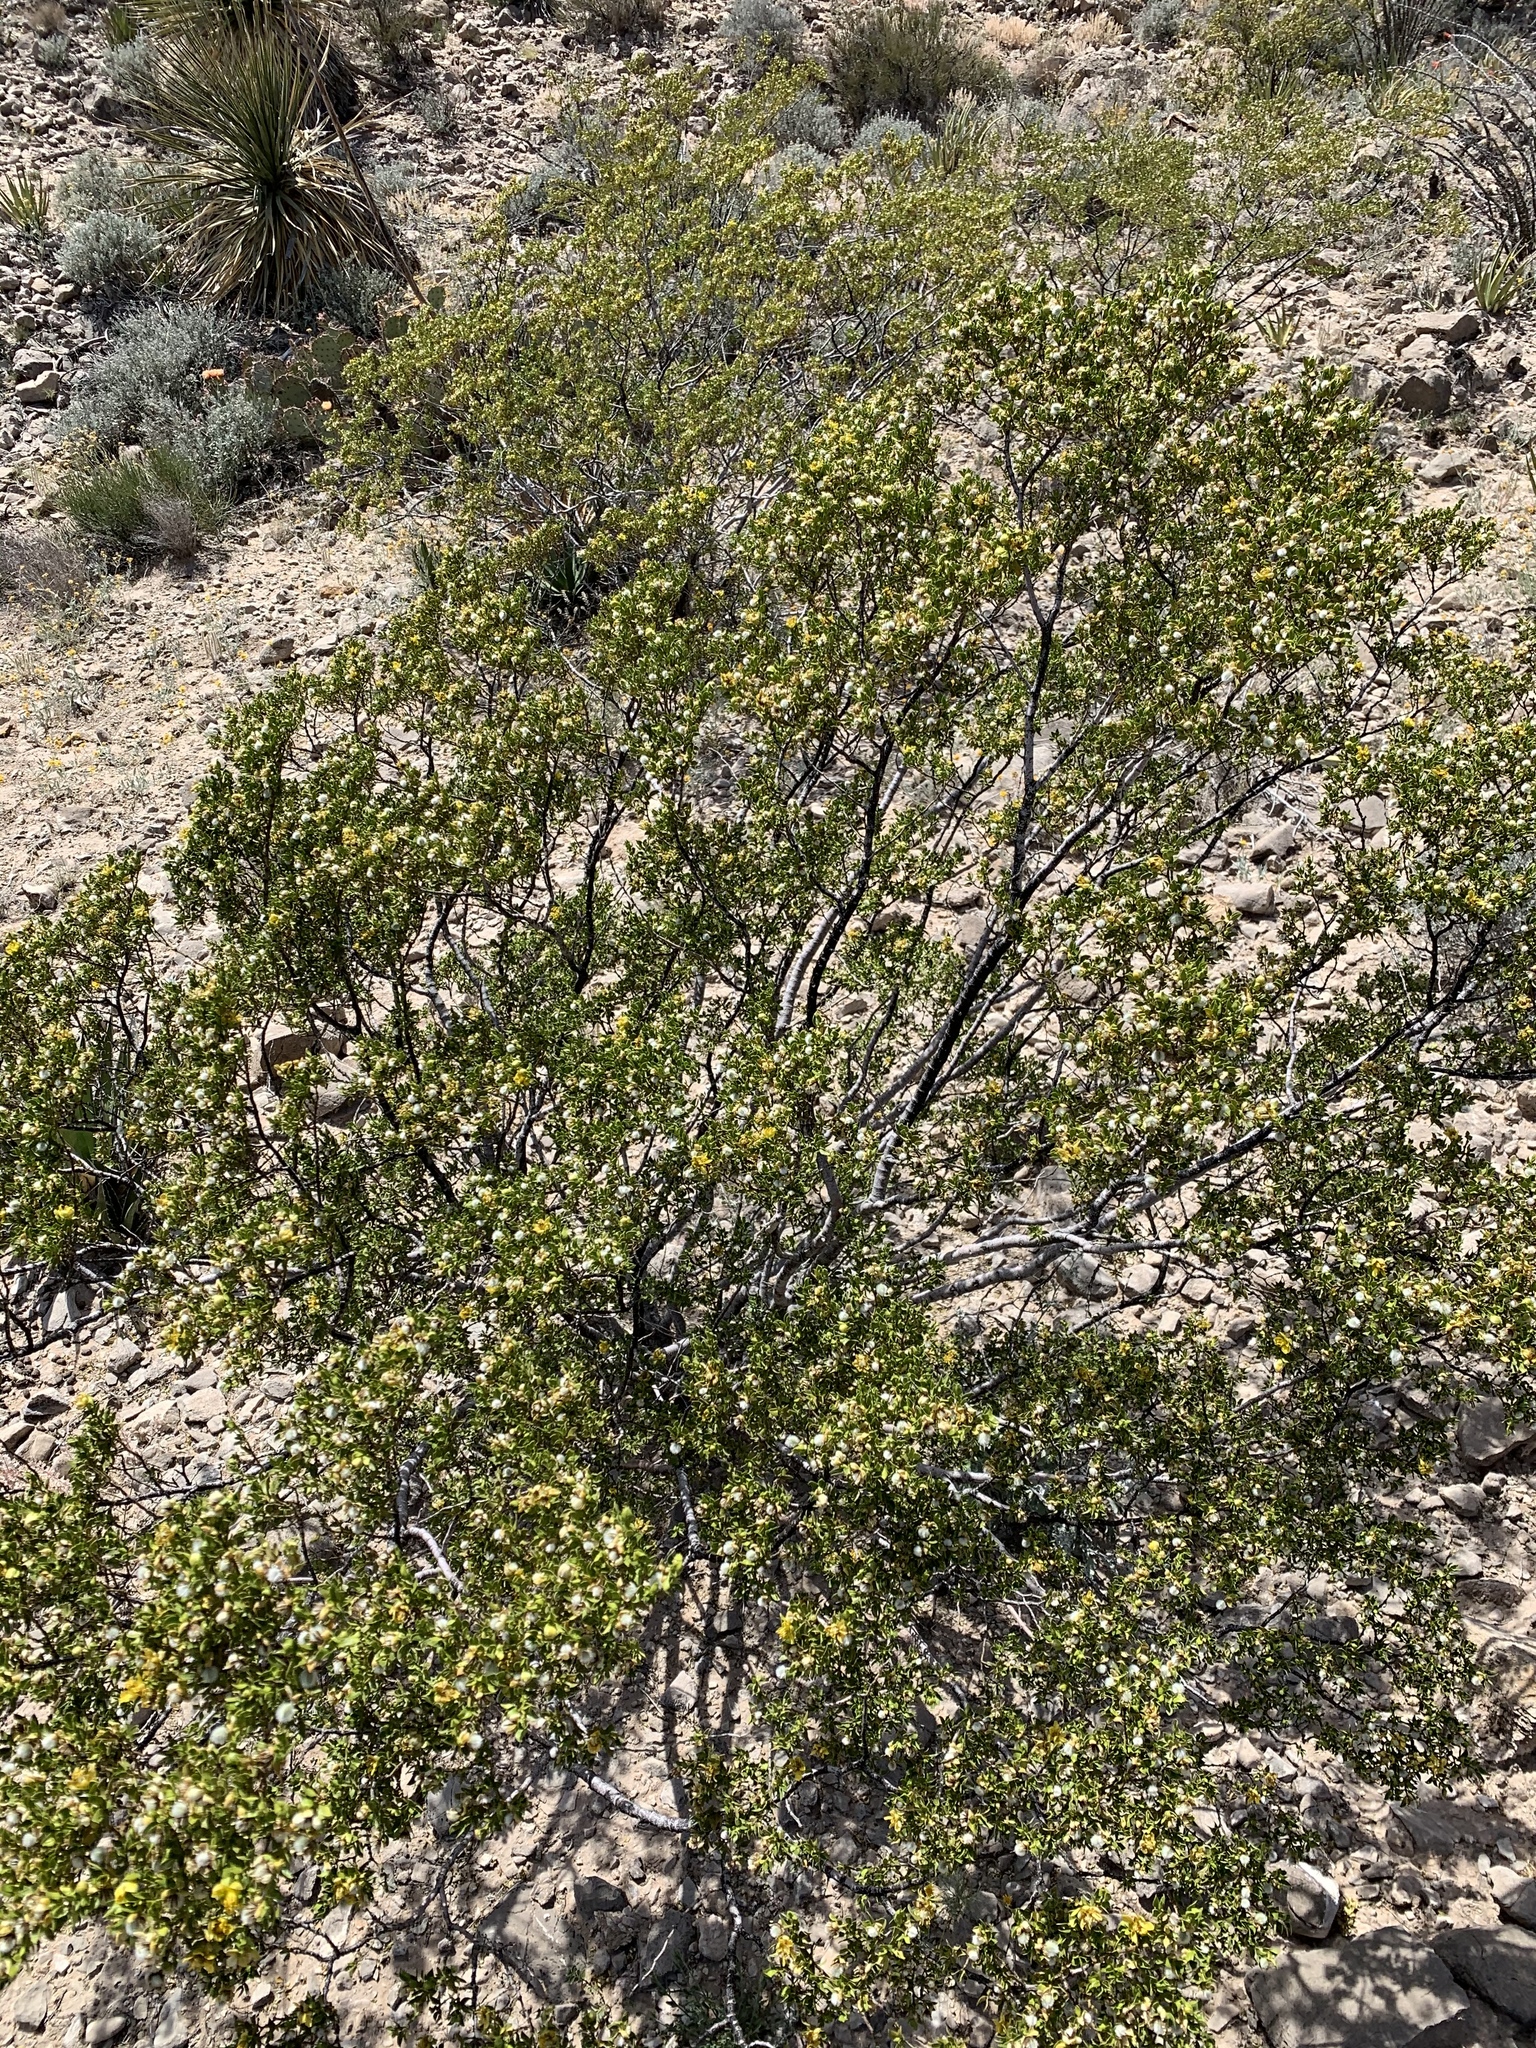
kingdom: Plantae
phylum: Tracheophyta
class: Magnoliopsida
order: Zygophyllales
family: Zygophyllaceae
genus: Larrea
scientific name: Larrea tridentata
